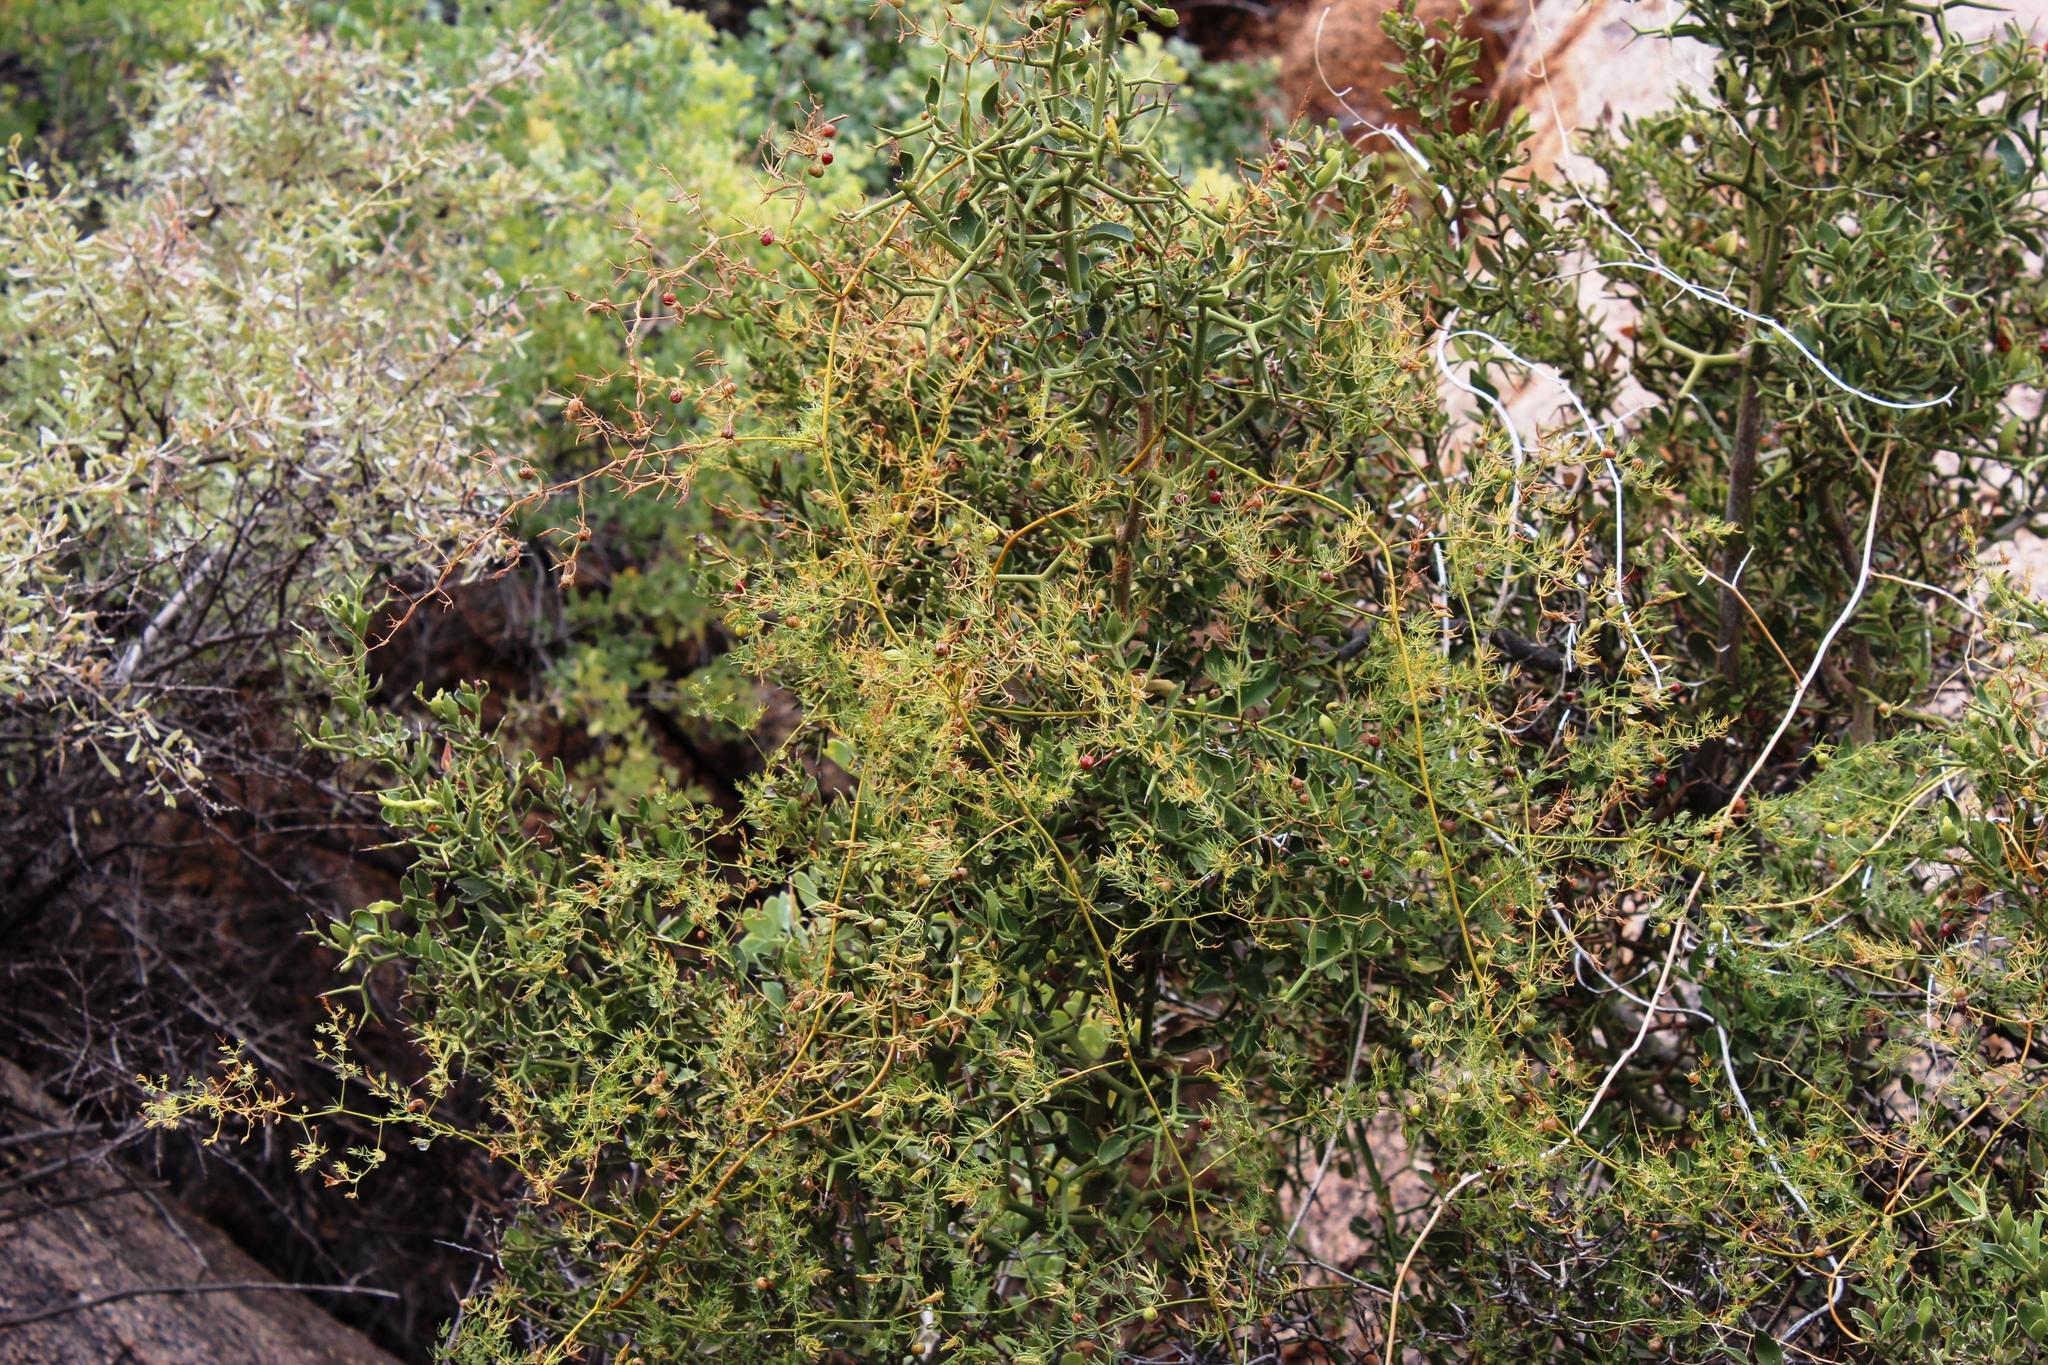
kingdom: Plantae
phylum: Tracheophyta
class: Magnoliopsida
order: Gentianales
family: Apocynaceae
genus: Carissa
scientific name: Carissa haematocarpa
